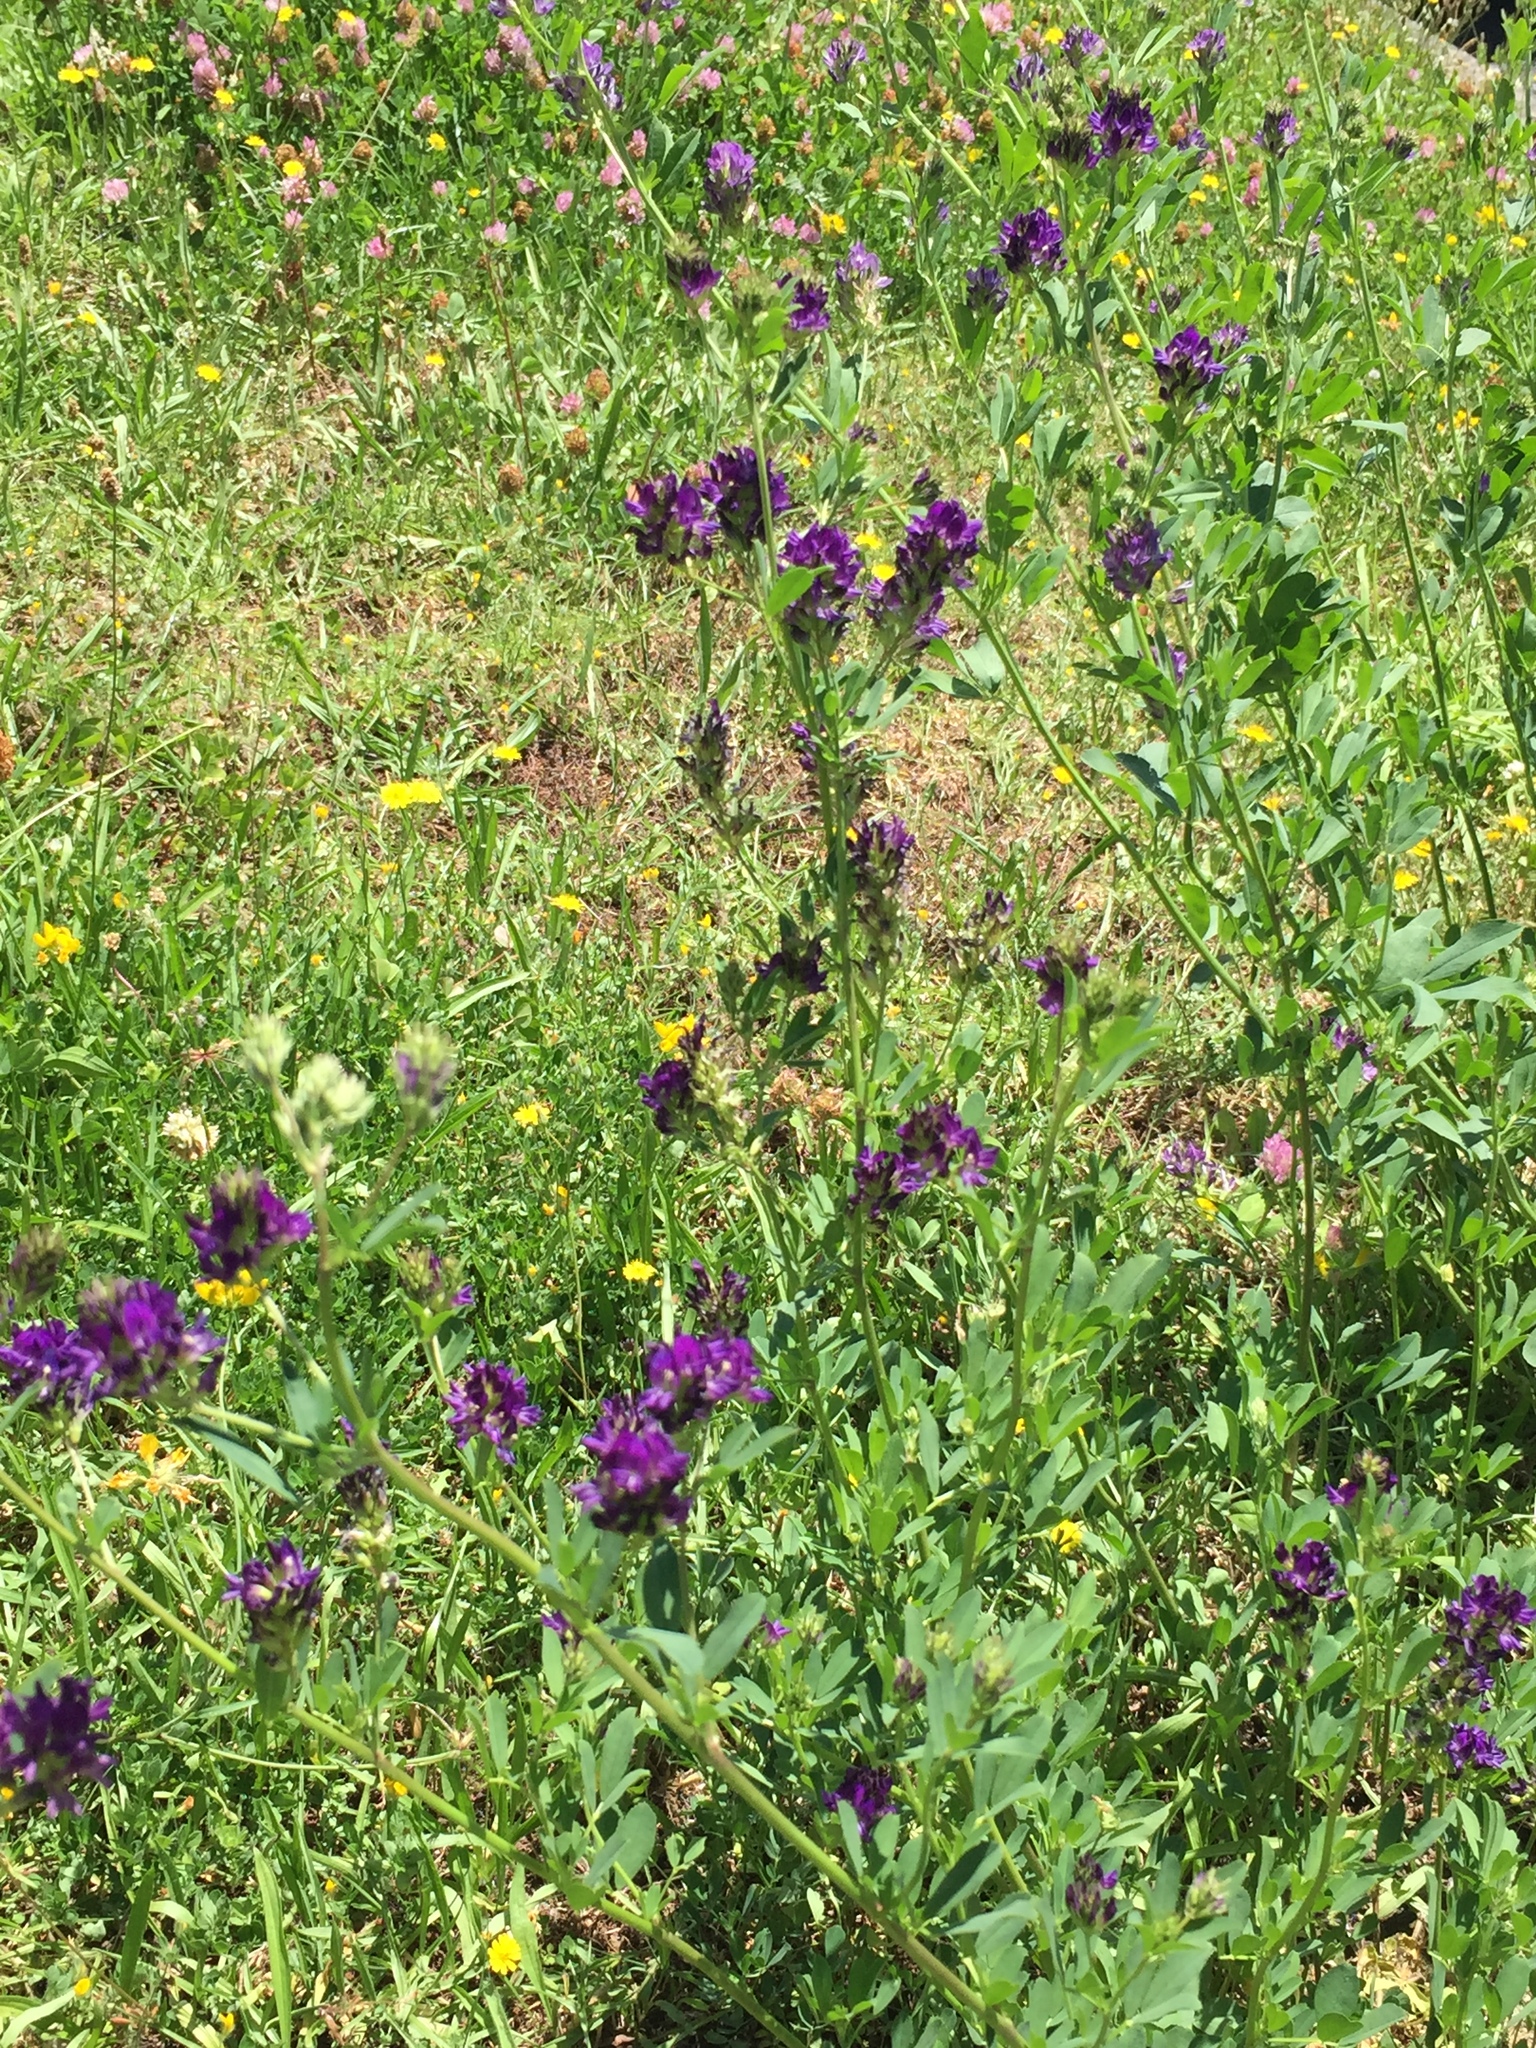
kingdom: Plantae
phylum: Tracheophyta
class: Magnoliopsida
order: Fabales
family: Fabaceae
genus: Medicago
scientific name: Medicago sativa
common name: Alfalfa
